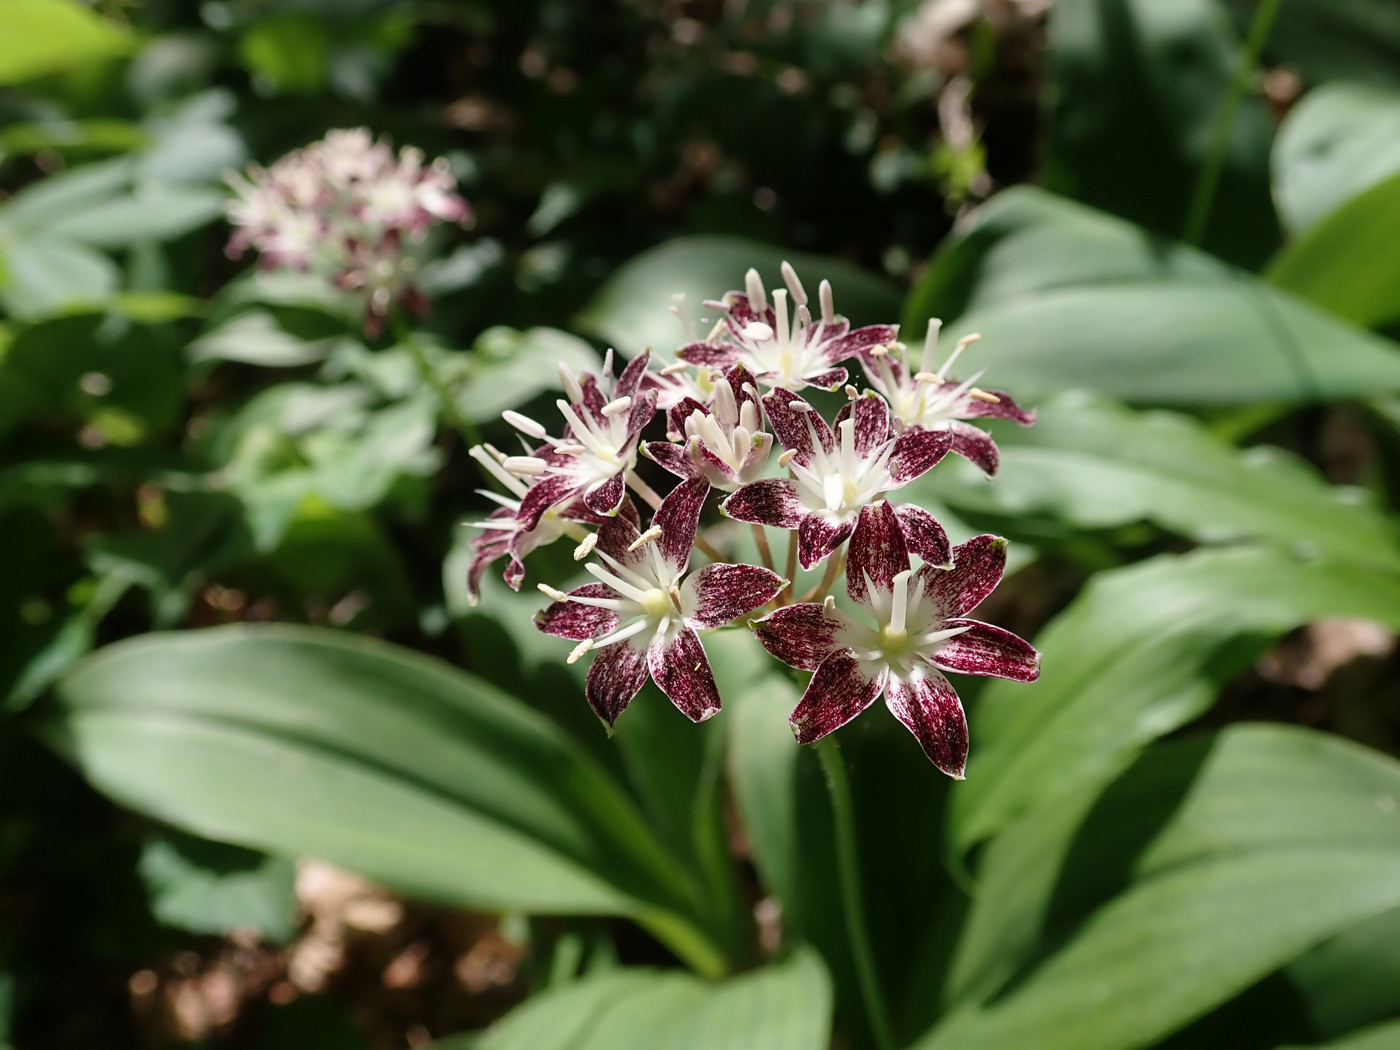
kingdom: Plantae
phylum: Tracheophyta
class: Liliopsida
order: Liliales
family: Liliaceae
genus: Clintonia
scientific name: Clintonia umbellulata
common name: Speckle wood-lily
